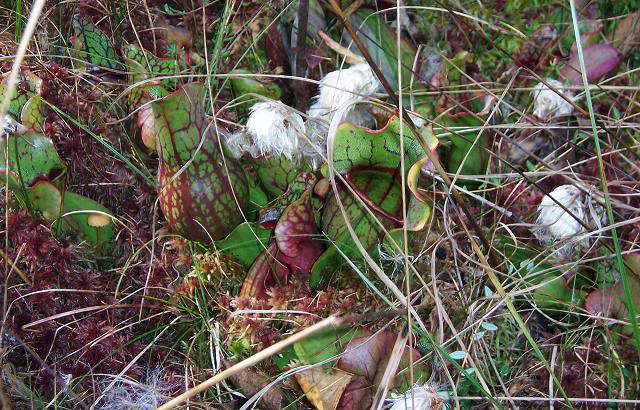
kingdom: Plantae
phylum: Tracheophyta
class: Magnoliopsida
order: Ericales
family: Sarraceniaceae
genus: Sarracenia
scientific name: Sarracenia purpurea
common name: Pitcherplant
